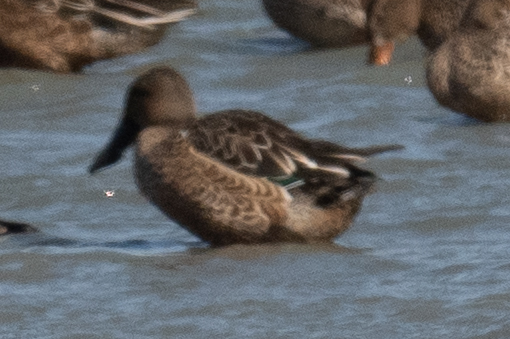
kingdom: Animalia
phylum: Chordata
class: Aves
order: Anseriformes
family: Anatidae
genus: Spatula
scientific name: Spatula clypeata
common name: Northern shoveler
